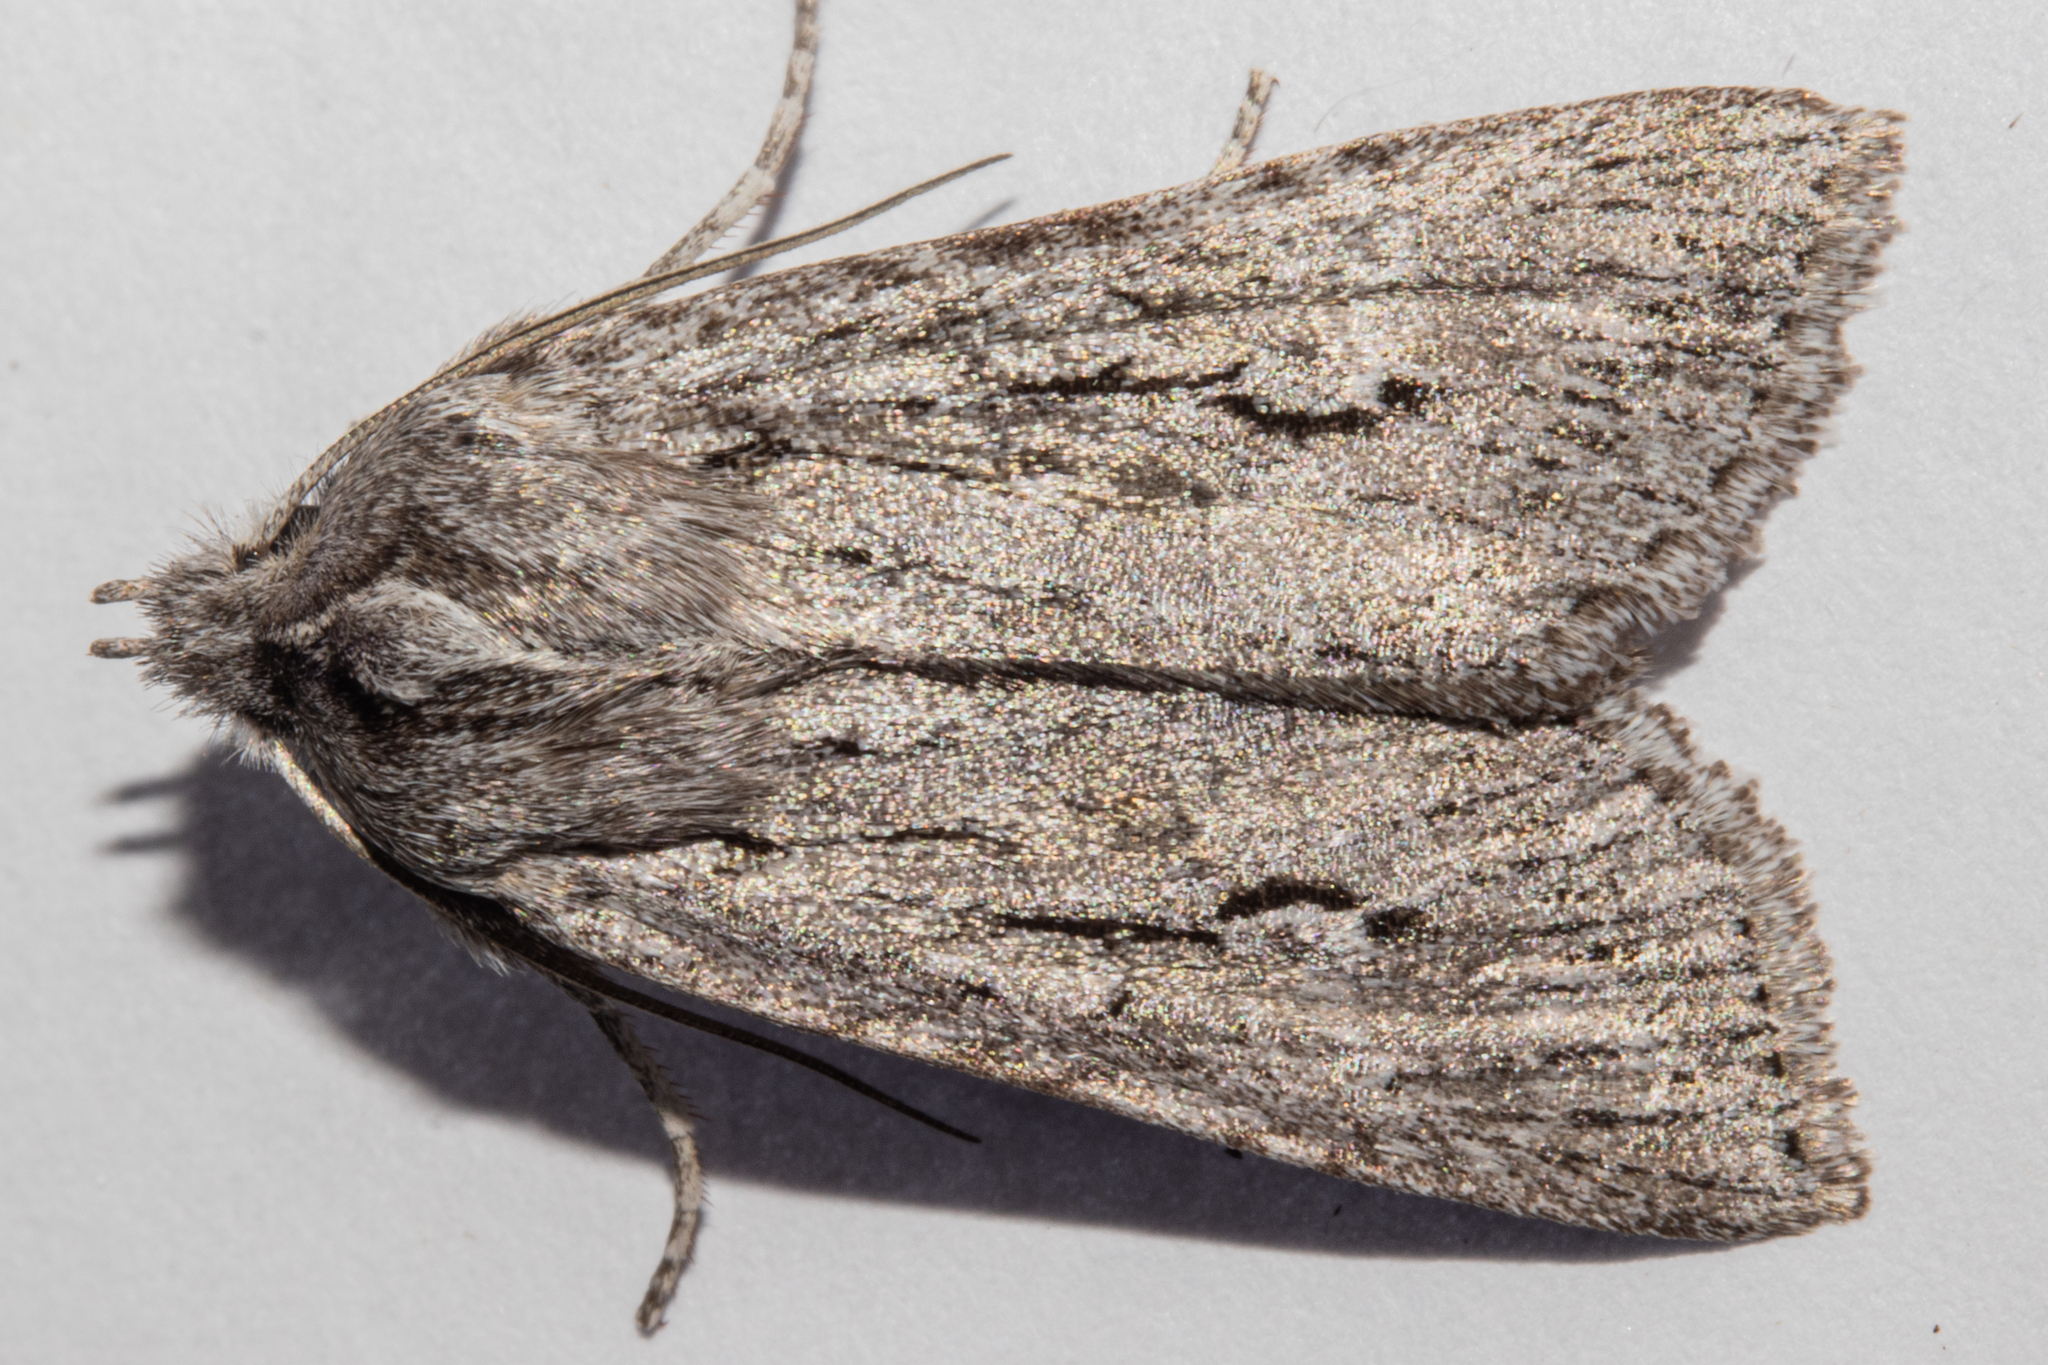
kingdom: Animalia
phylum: Arthropoda
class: Insecta
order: Lepidoptera
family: Noctuidae
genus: Physetica
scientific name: Physetica sequens
